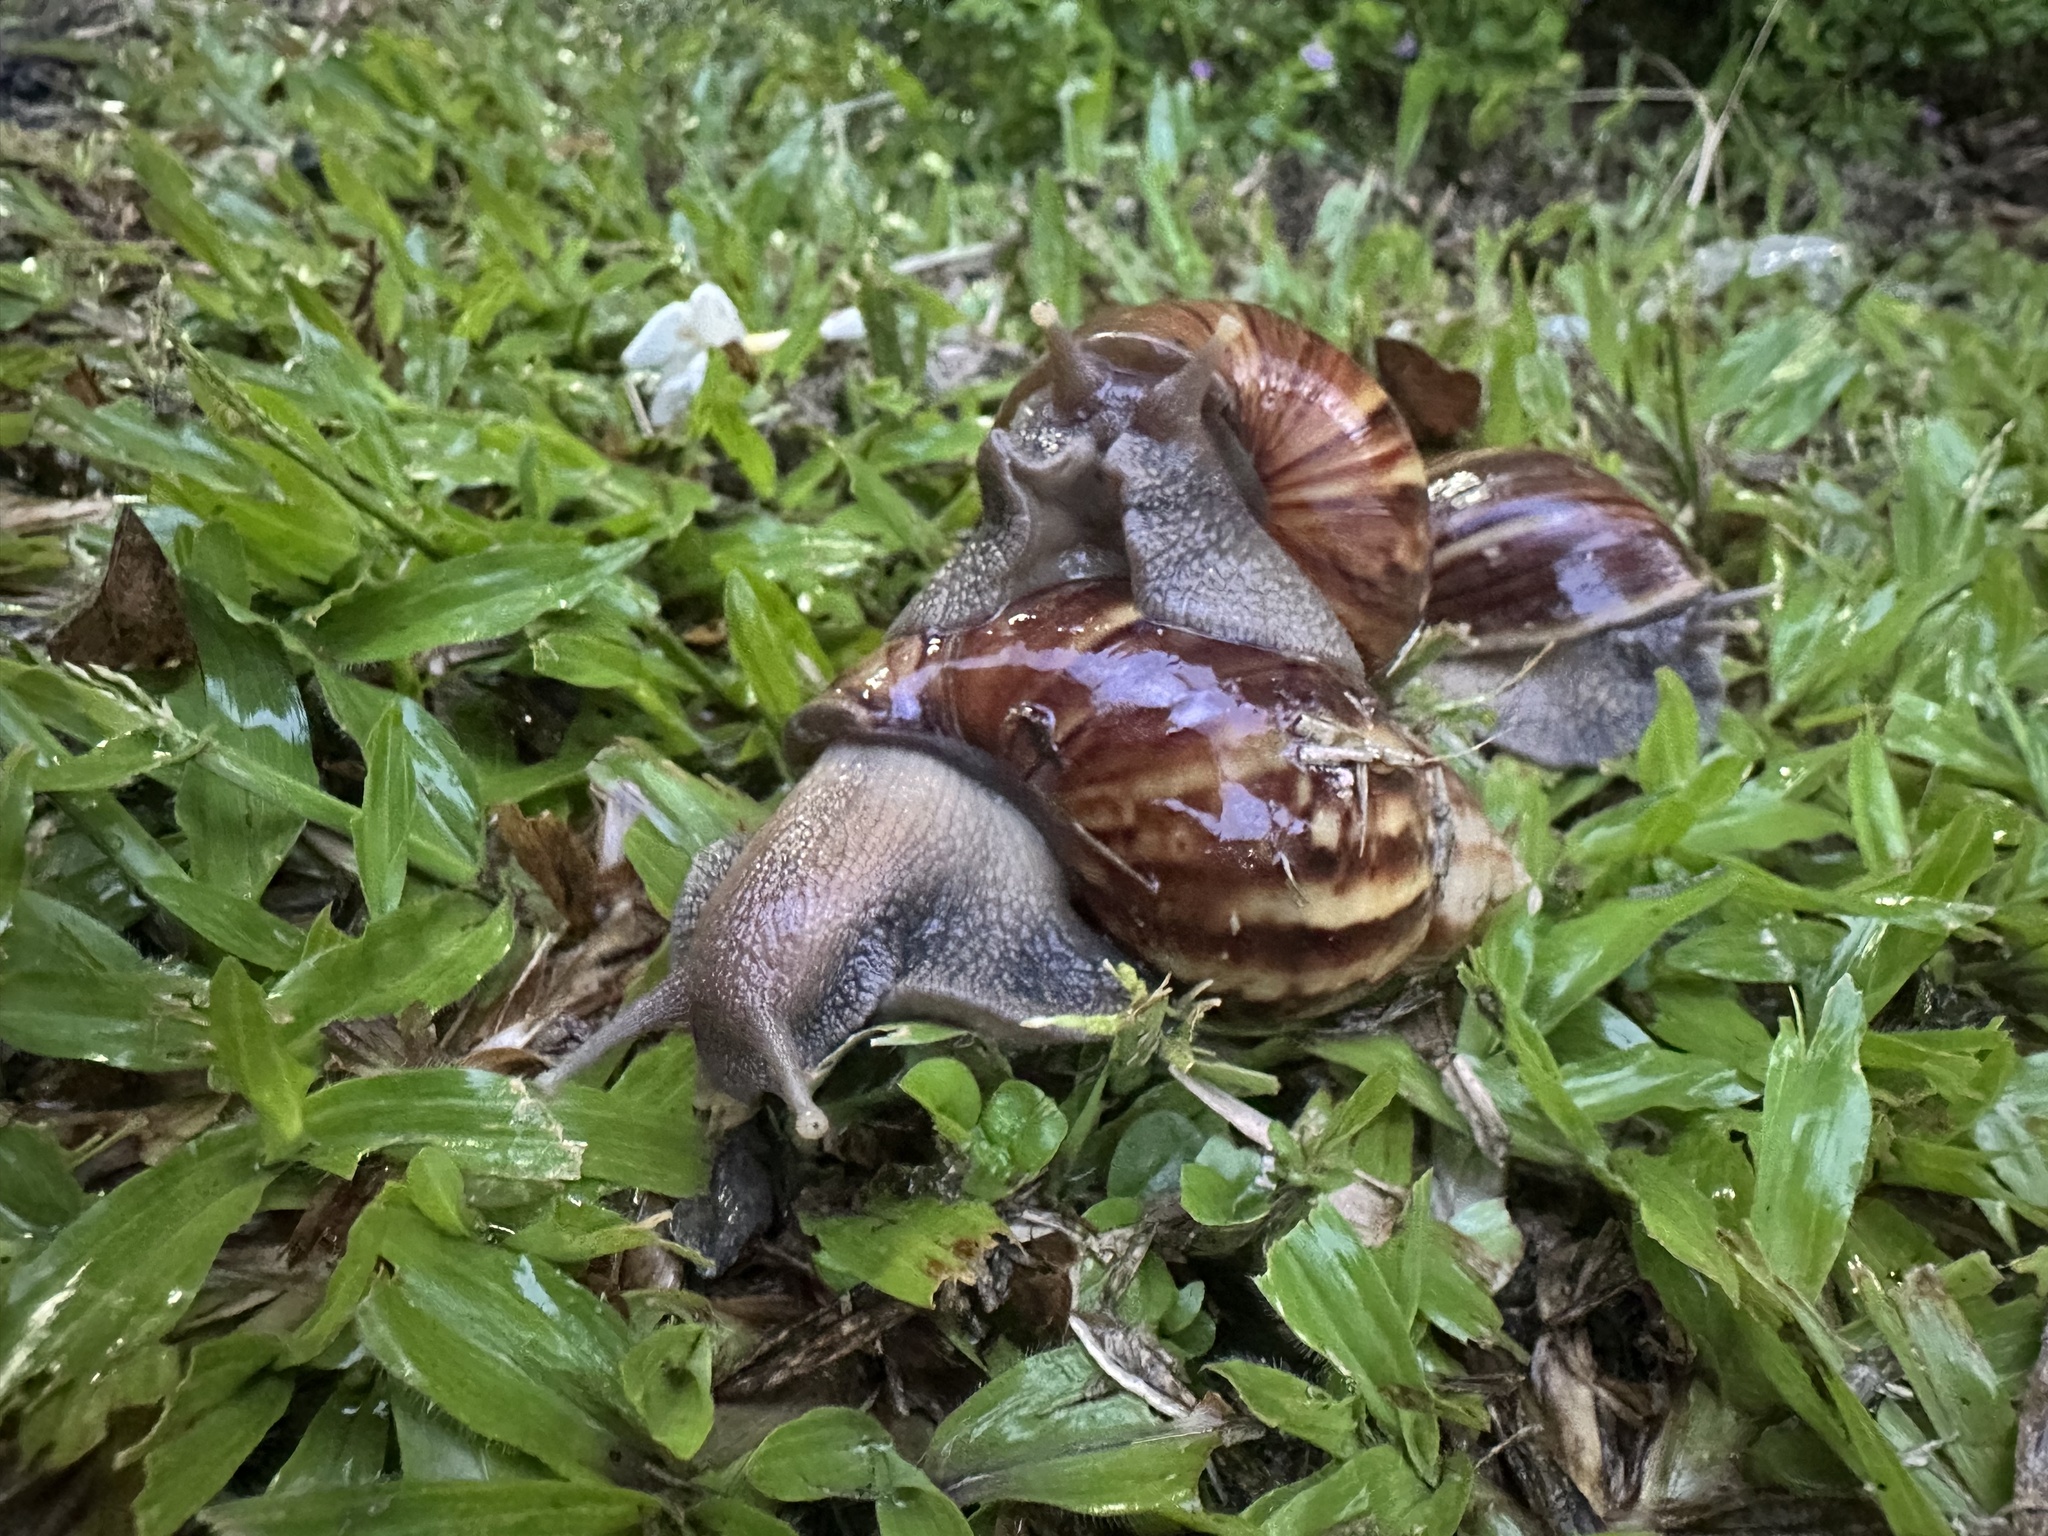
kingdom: Animalia
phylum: Mollusca
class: Gastropoda
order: Stylommatophora
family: Achatinidae
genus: Lissachatina
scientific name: Lissachatina fulica
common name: Giant african snail
